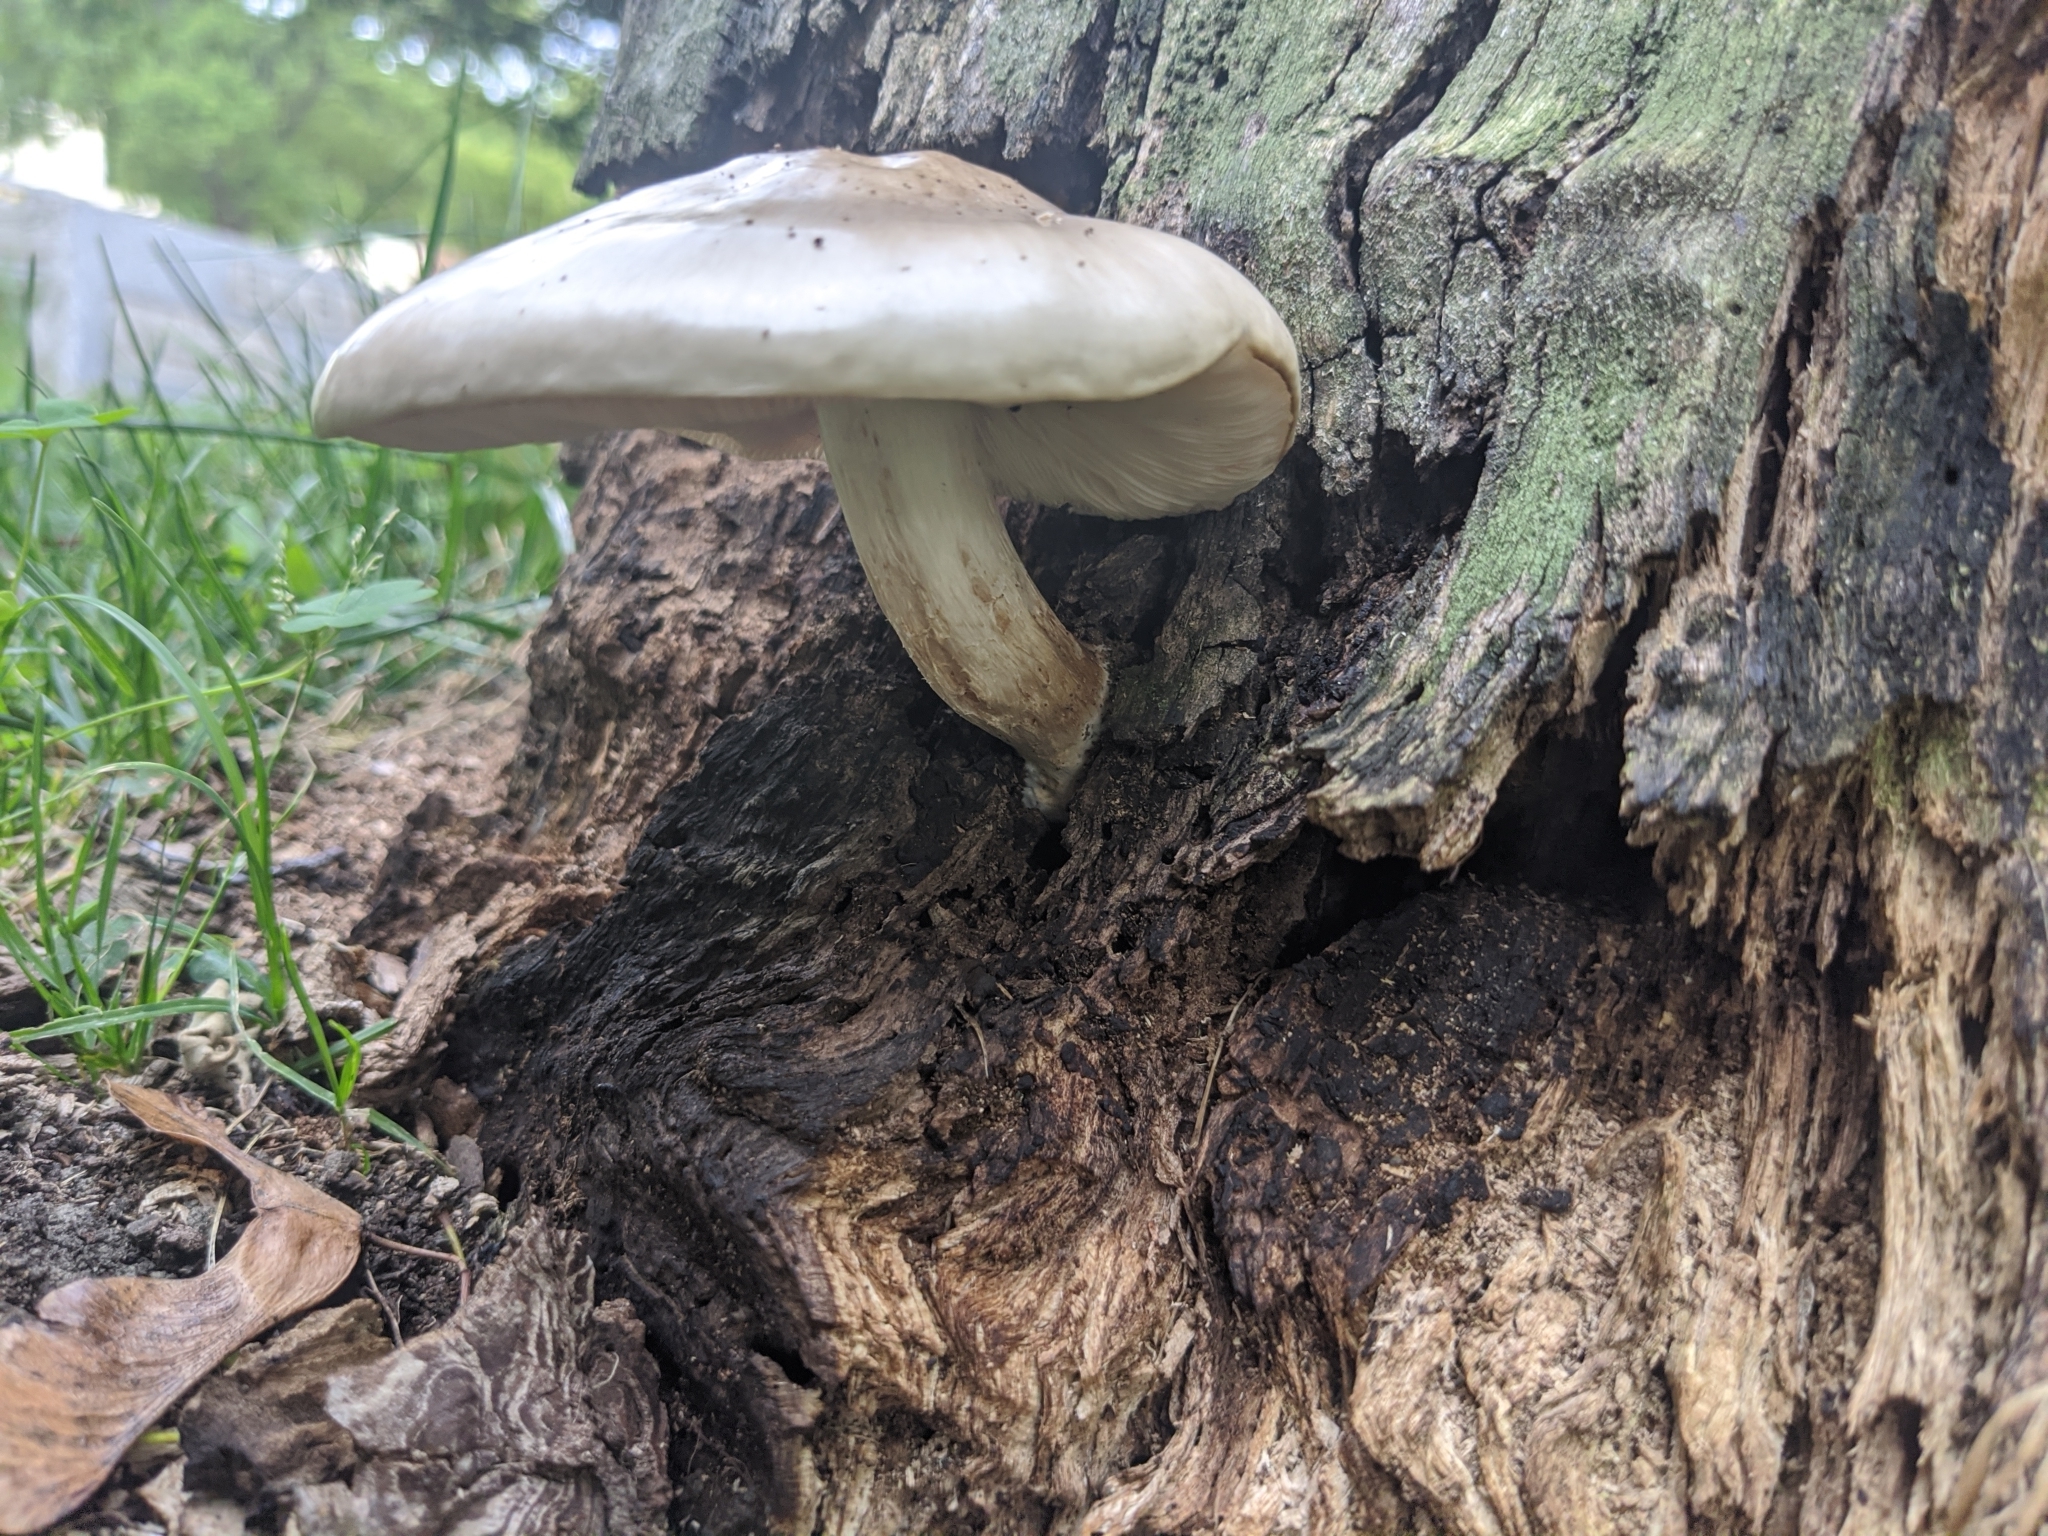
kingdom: Fungi
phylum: Basidiomycota
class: Agaricomycetes
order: Agaricales
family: Pluteaceae
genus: Pluteus
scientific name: Pluteus petasatus
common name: Scaly shield
